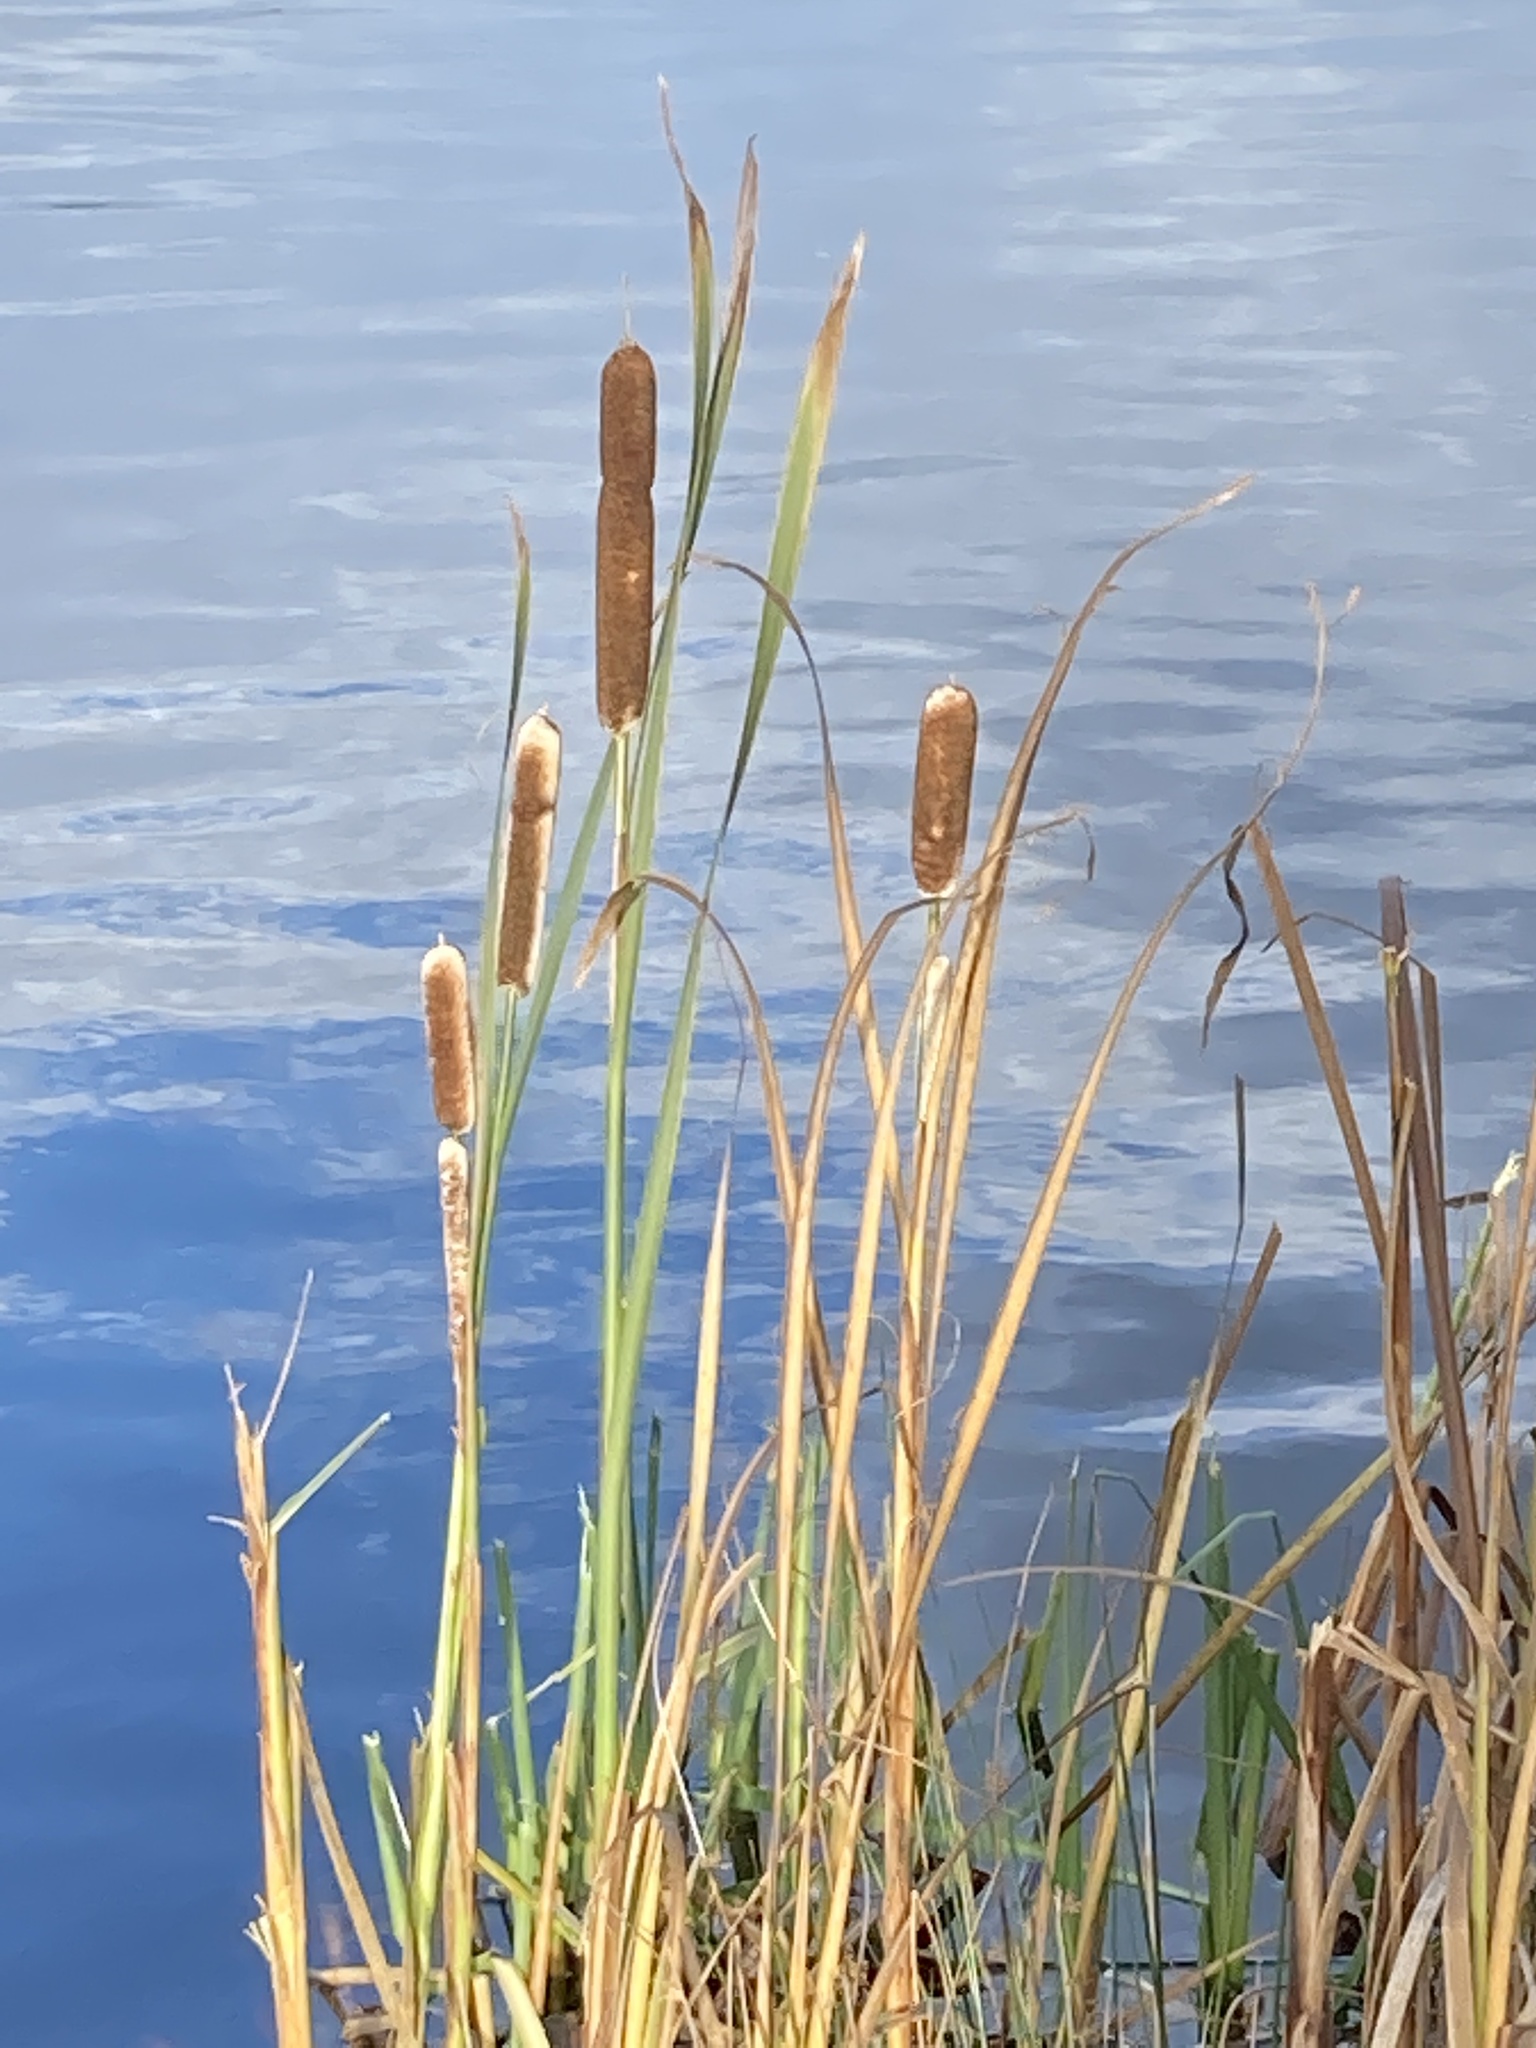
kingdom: Plantae
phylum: Tracheophyta
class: Liliopsida
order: Poales
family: Typhaceae
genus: Typha
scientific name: Typha latifolia
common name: Broadleaf cattail
